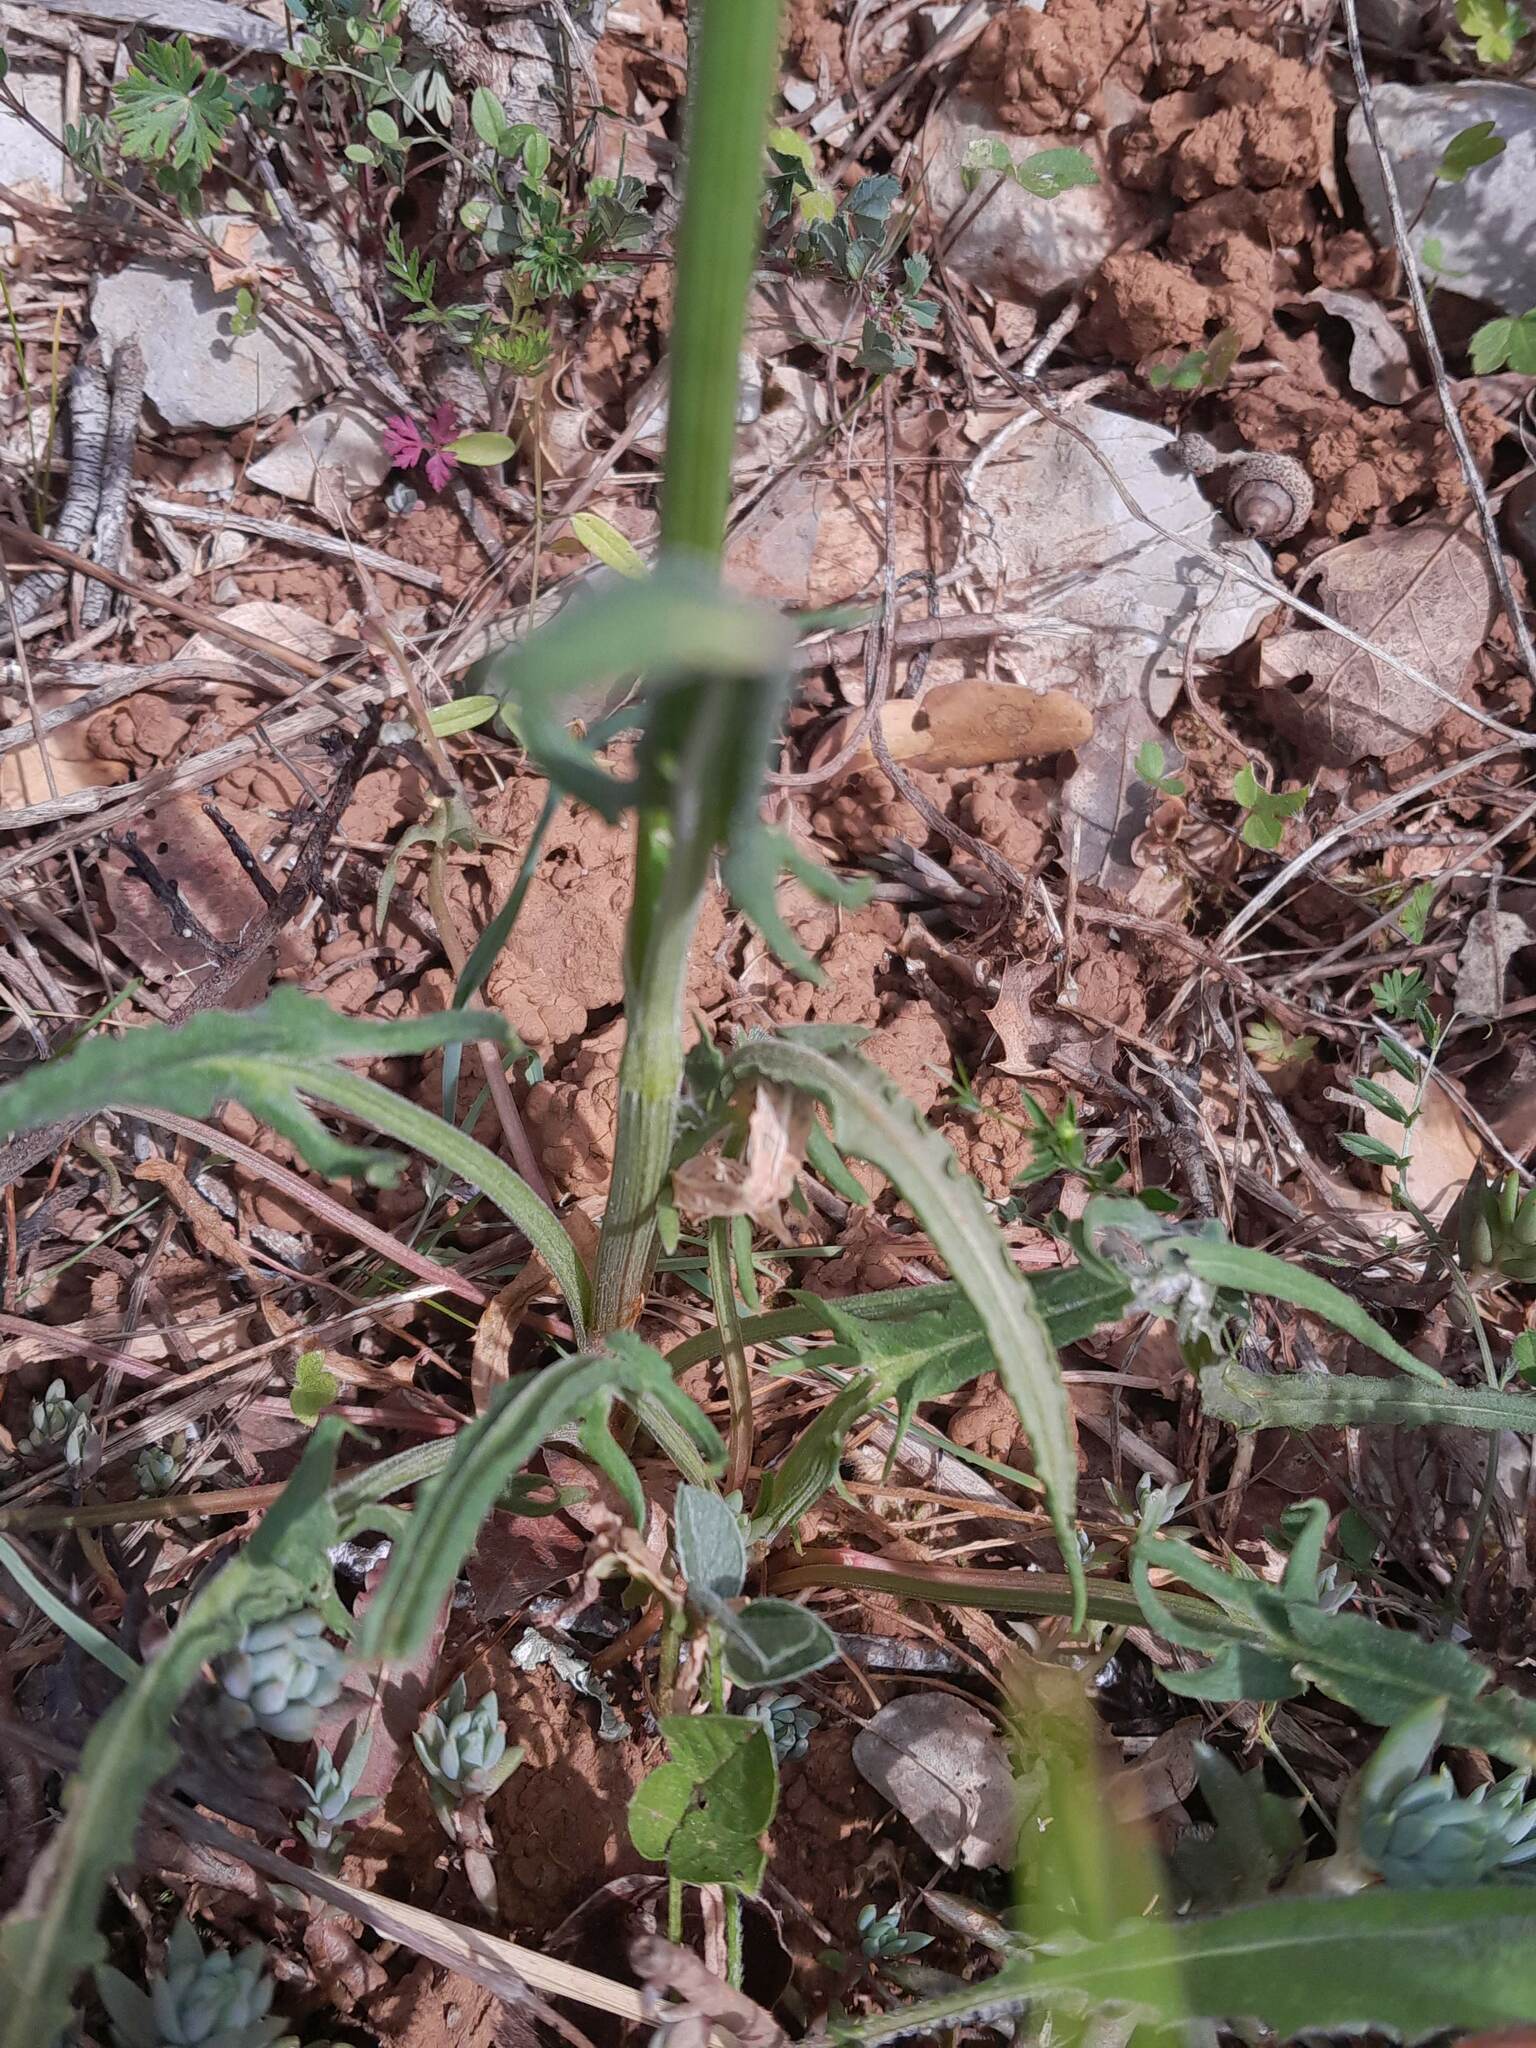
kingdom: Plantae
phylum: Tracheophyta
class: Magnoliopsida
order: Caryophyllales
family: Polygonaceae
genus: Rumex
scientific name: Rumex intermedius
